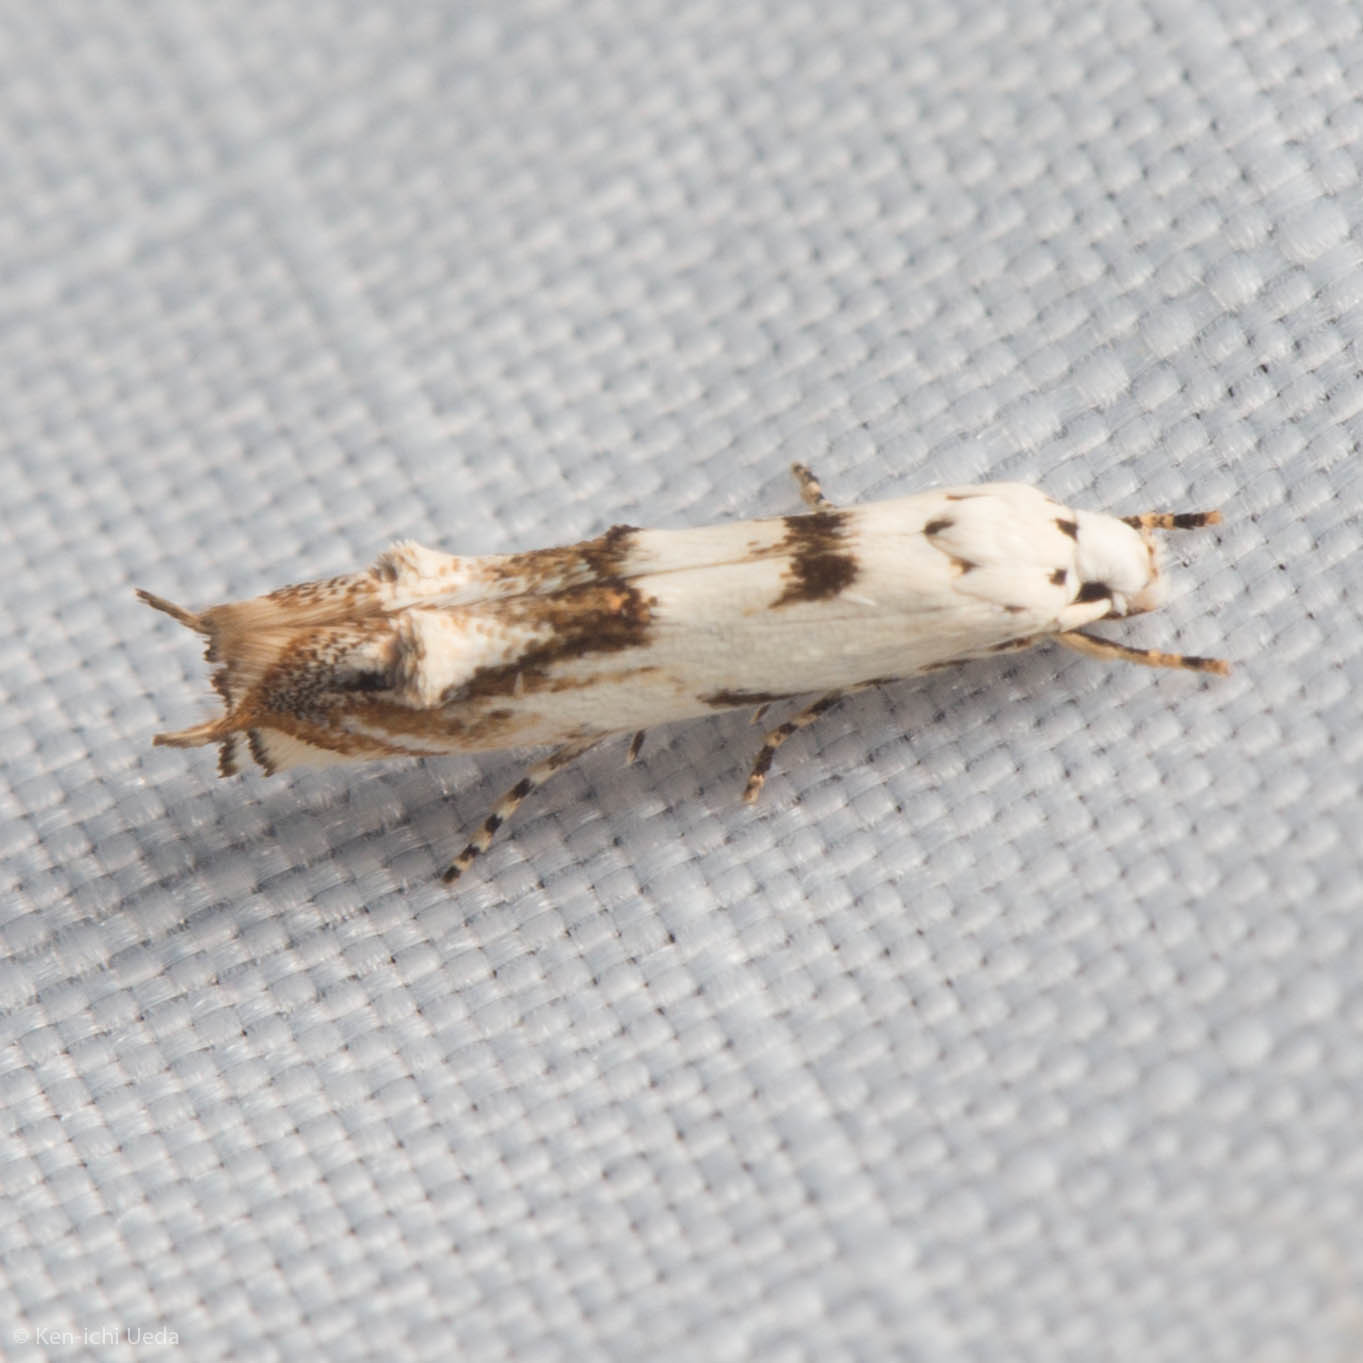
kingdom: Animalia
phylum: Arthropoda
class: Insecta
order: Lepidoptera
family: Momphidae
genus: Mompha
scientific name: Mompha eloisella
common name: Red-streaked mompha moth
